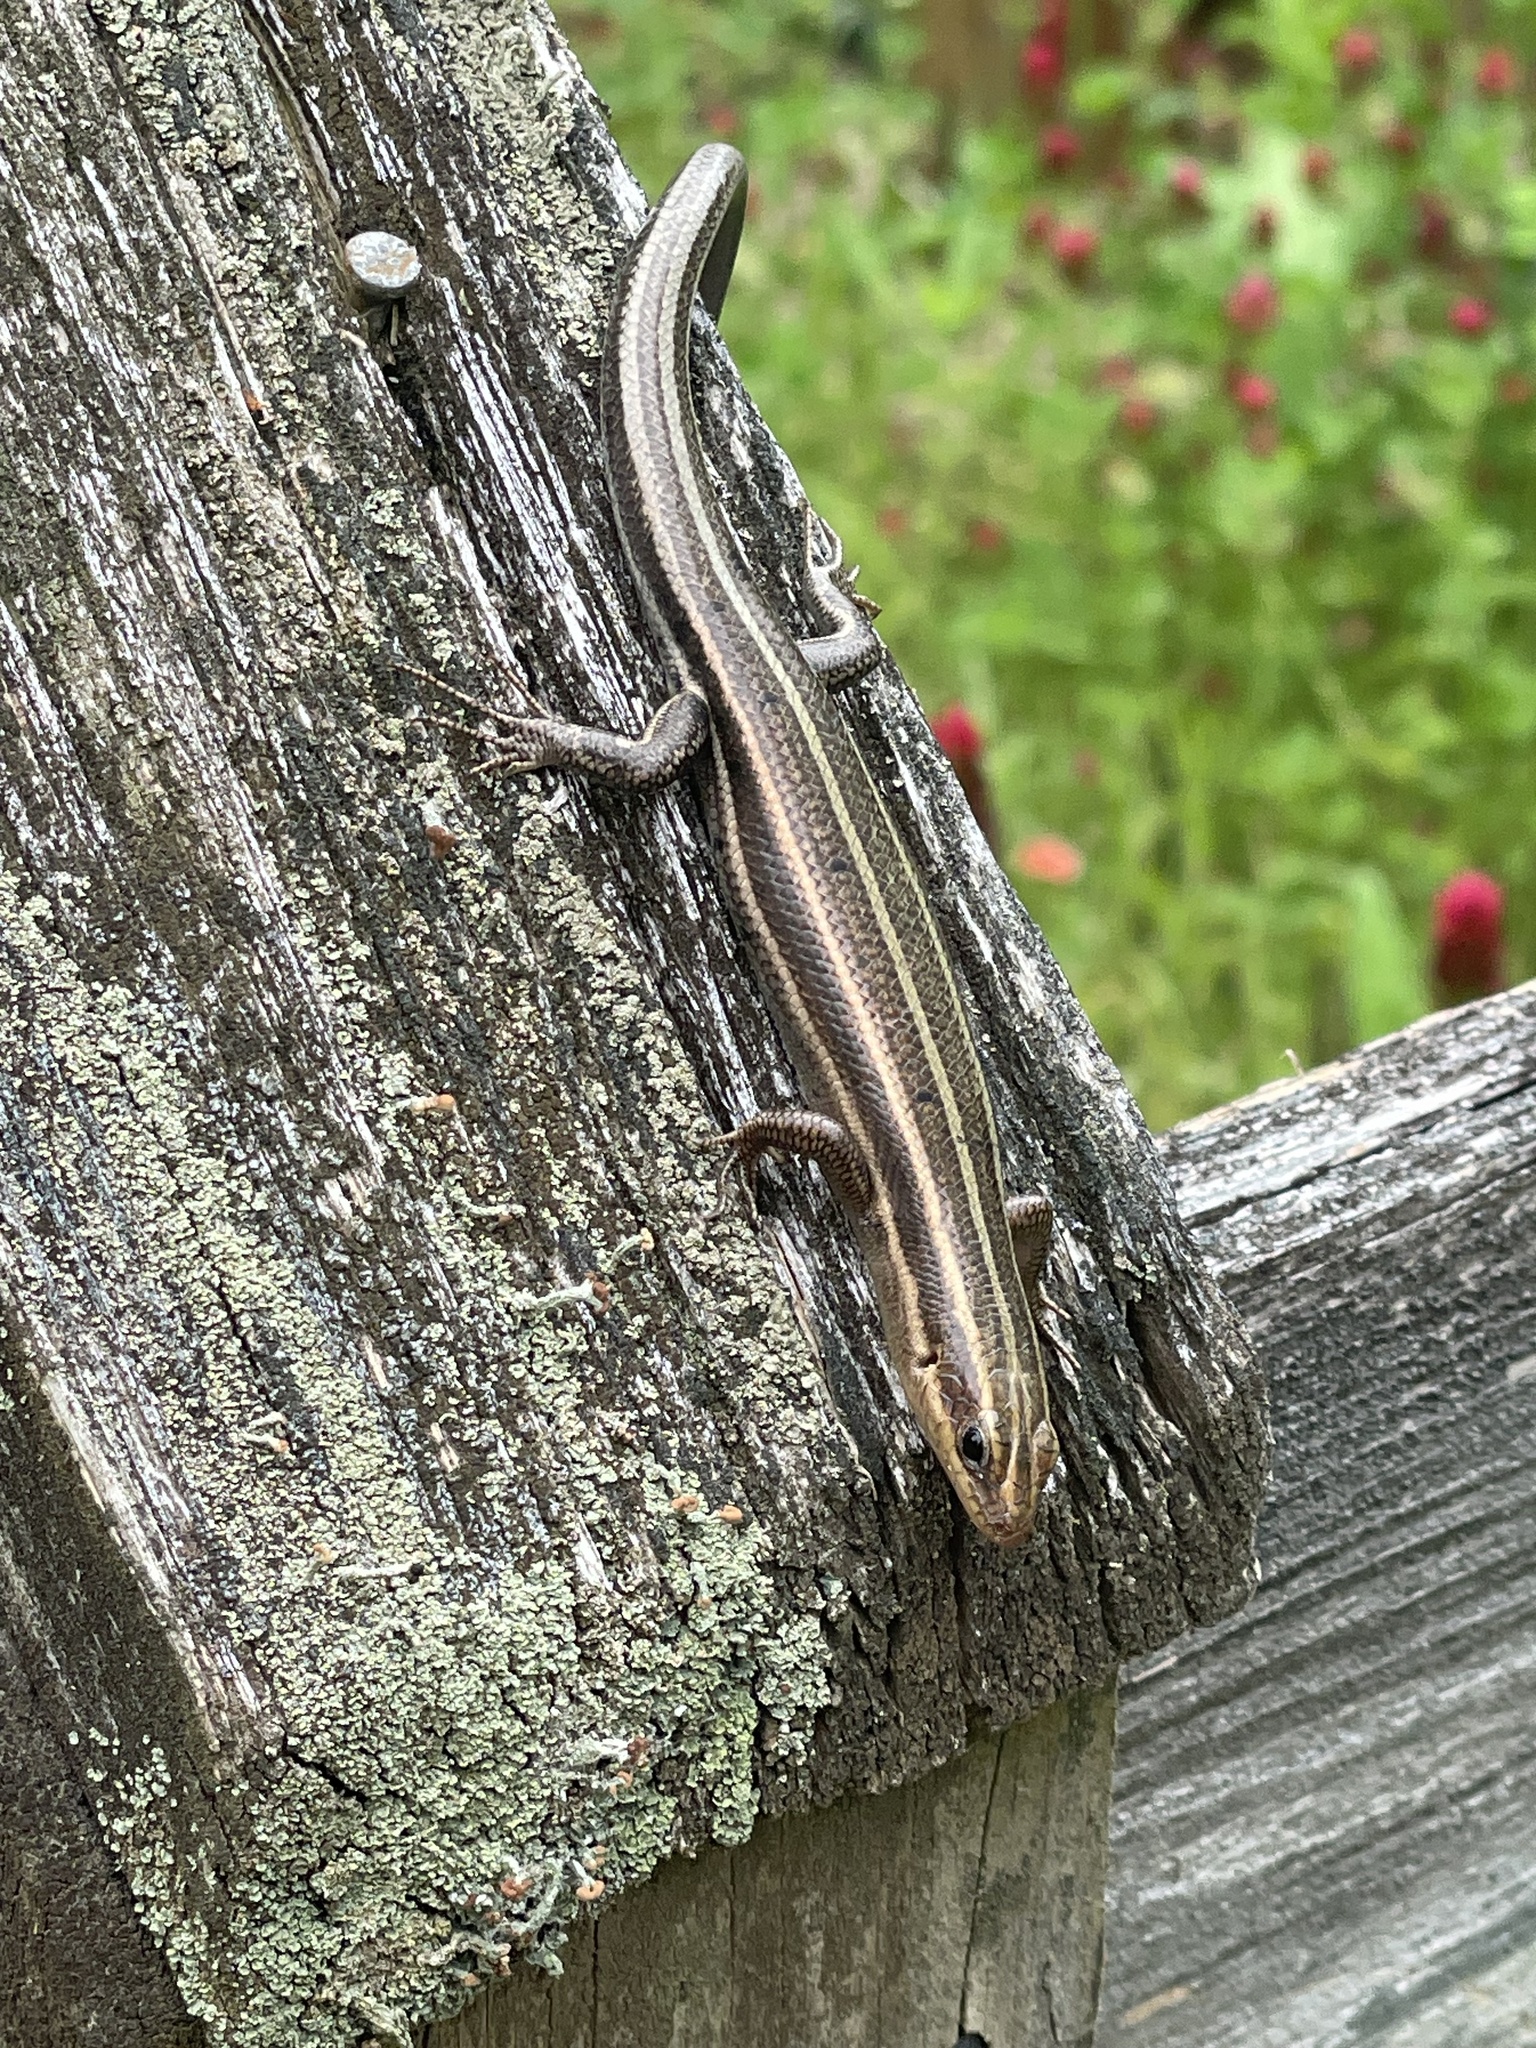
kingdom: Animalia
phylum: Chordata
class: Squamata
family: Scincidae
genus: Plestiodon
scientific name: Plestiodon fasciatus
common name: Five-lined skink
